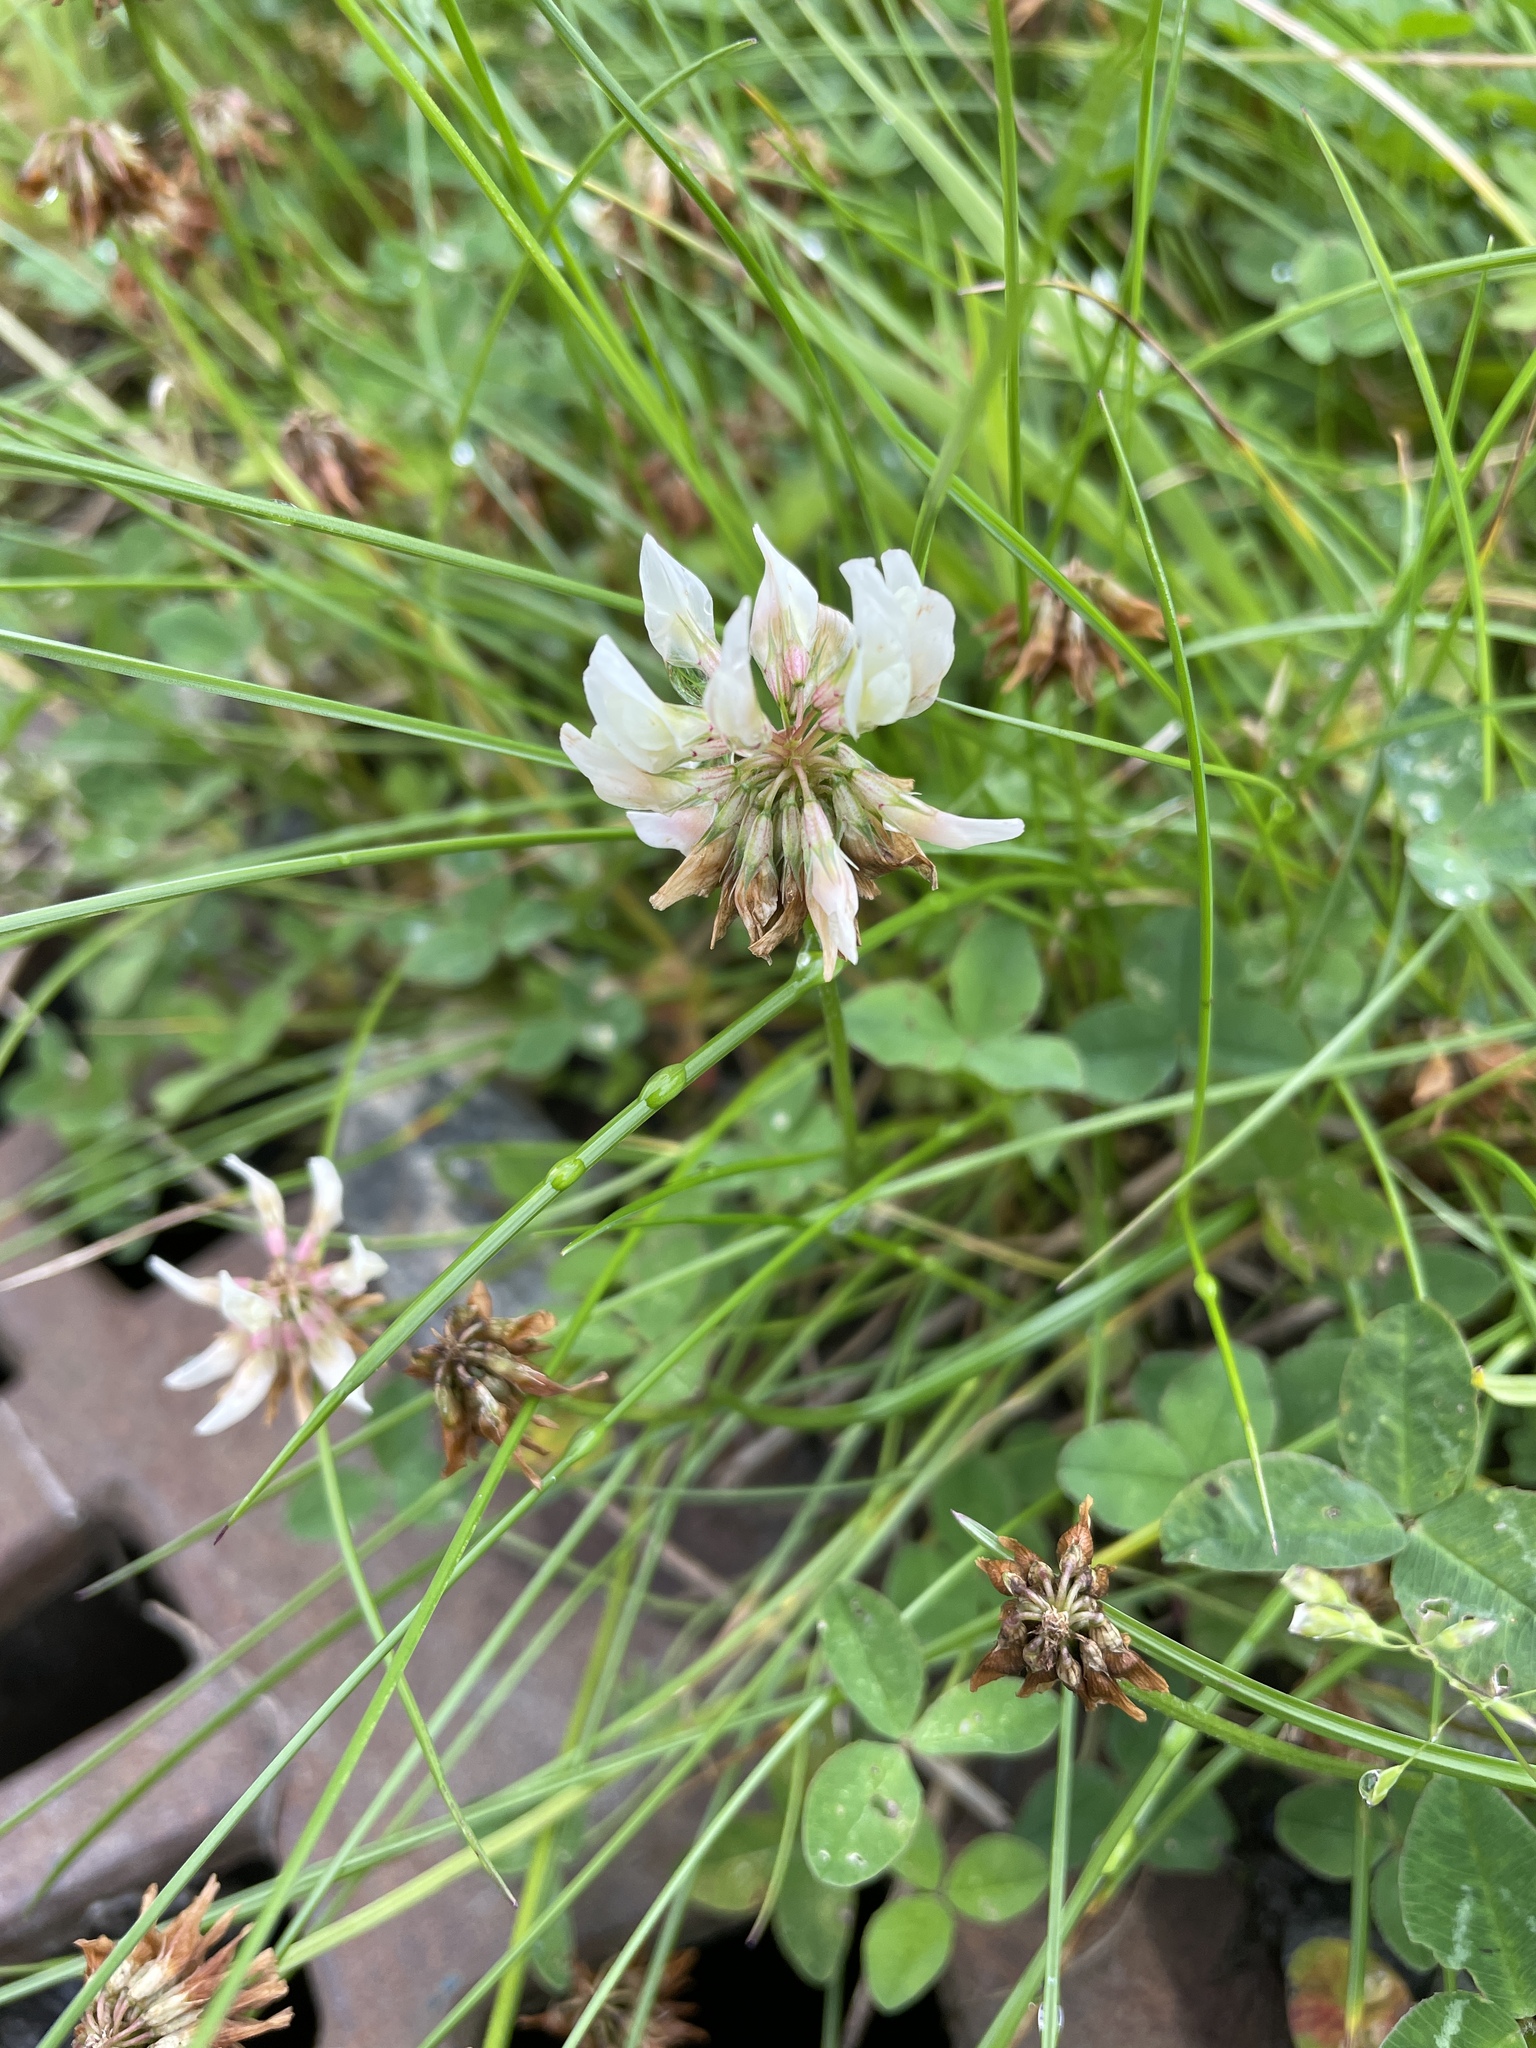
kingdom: Plantae
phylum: Tracheophyta
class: Magnoliopsida
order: Fabales
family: Fabaceae
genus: Trifolium
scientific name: Trifolium repens
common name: White clover
